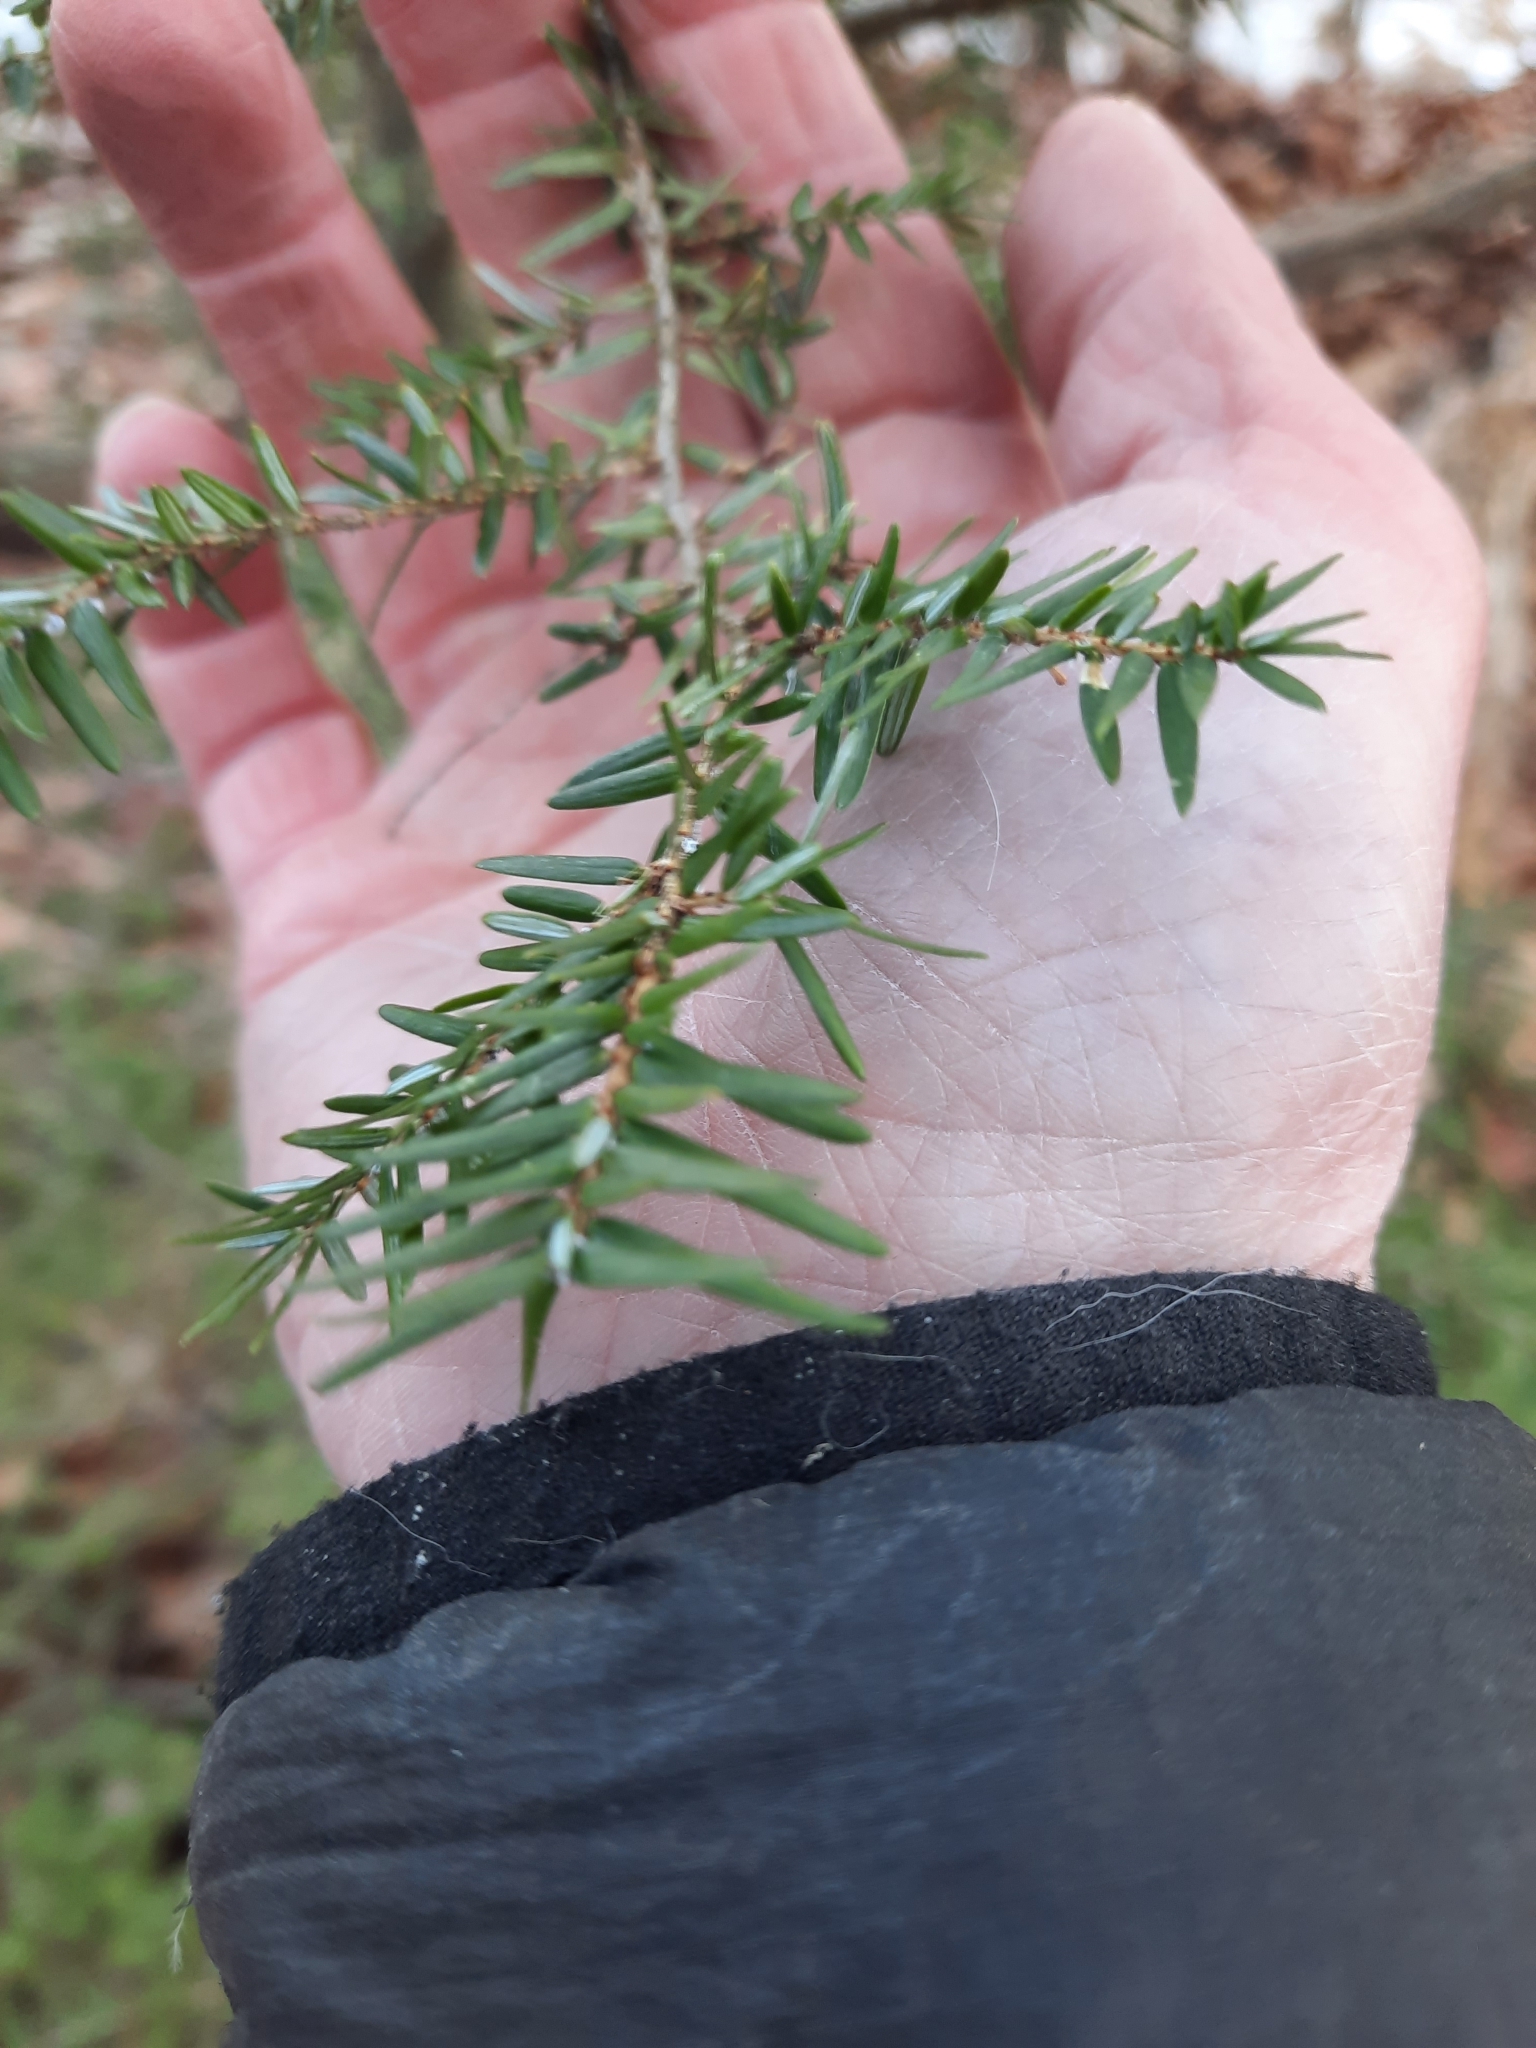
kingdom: Animalia
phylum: Arthropoda
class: Insecta
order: Hemiptera
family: Adelgidae
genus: Adelges
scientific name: Adelges tsugae
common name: Hemlock woolly adelgid
